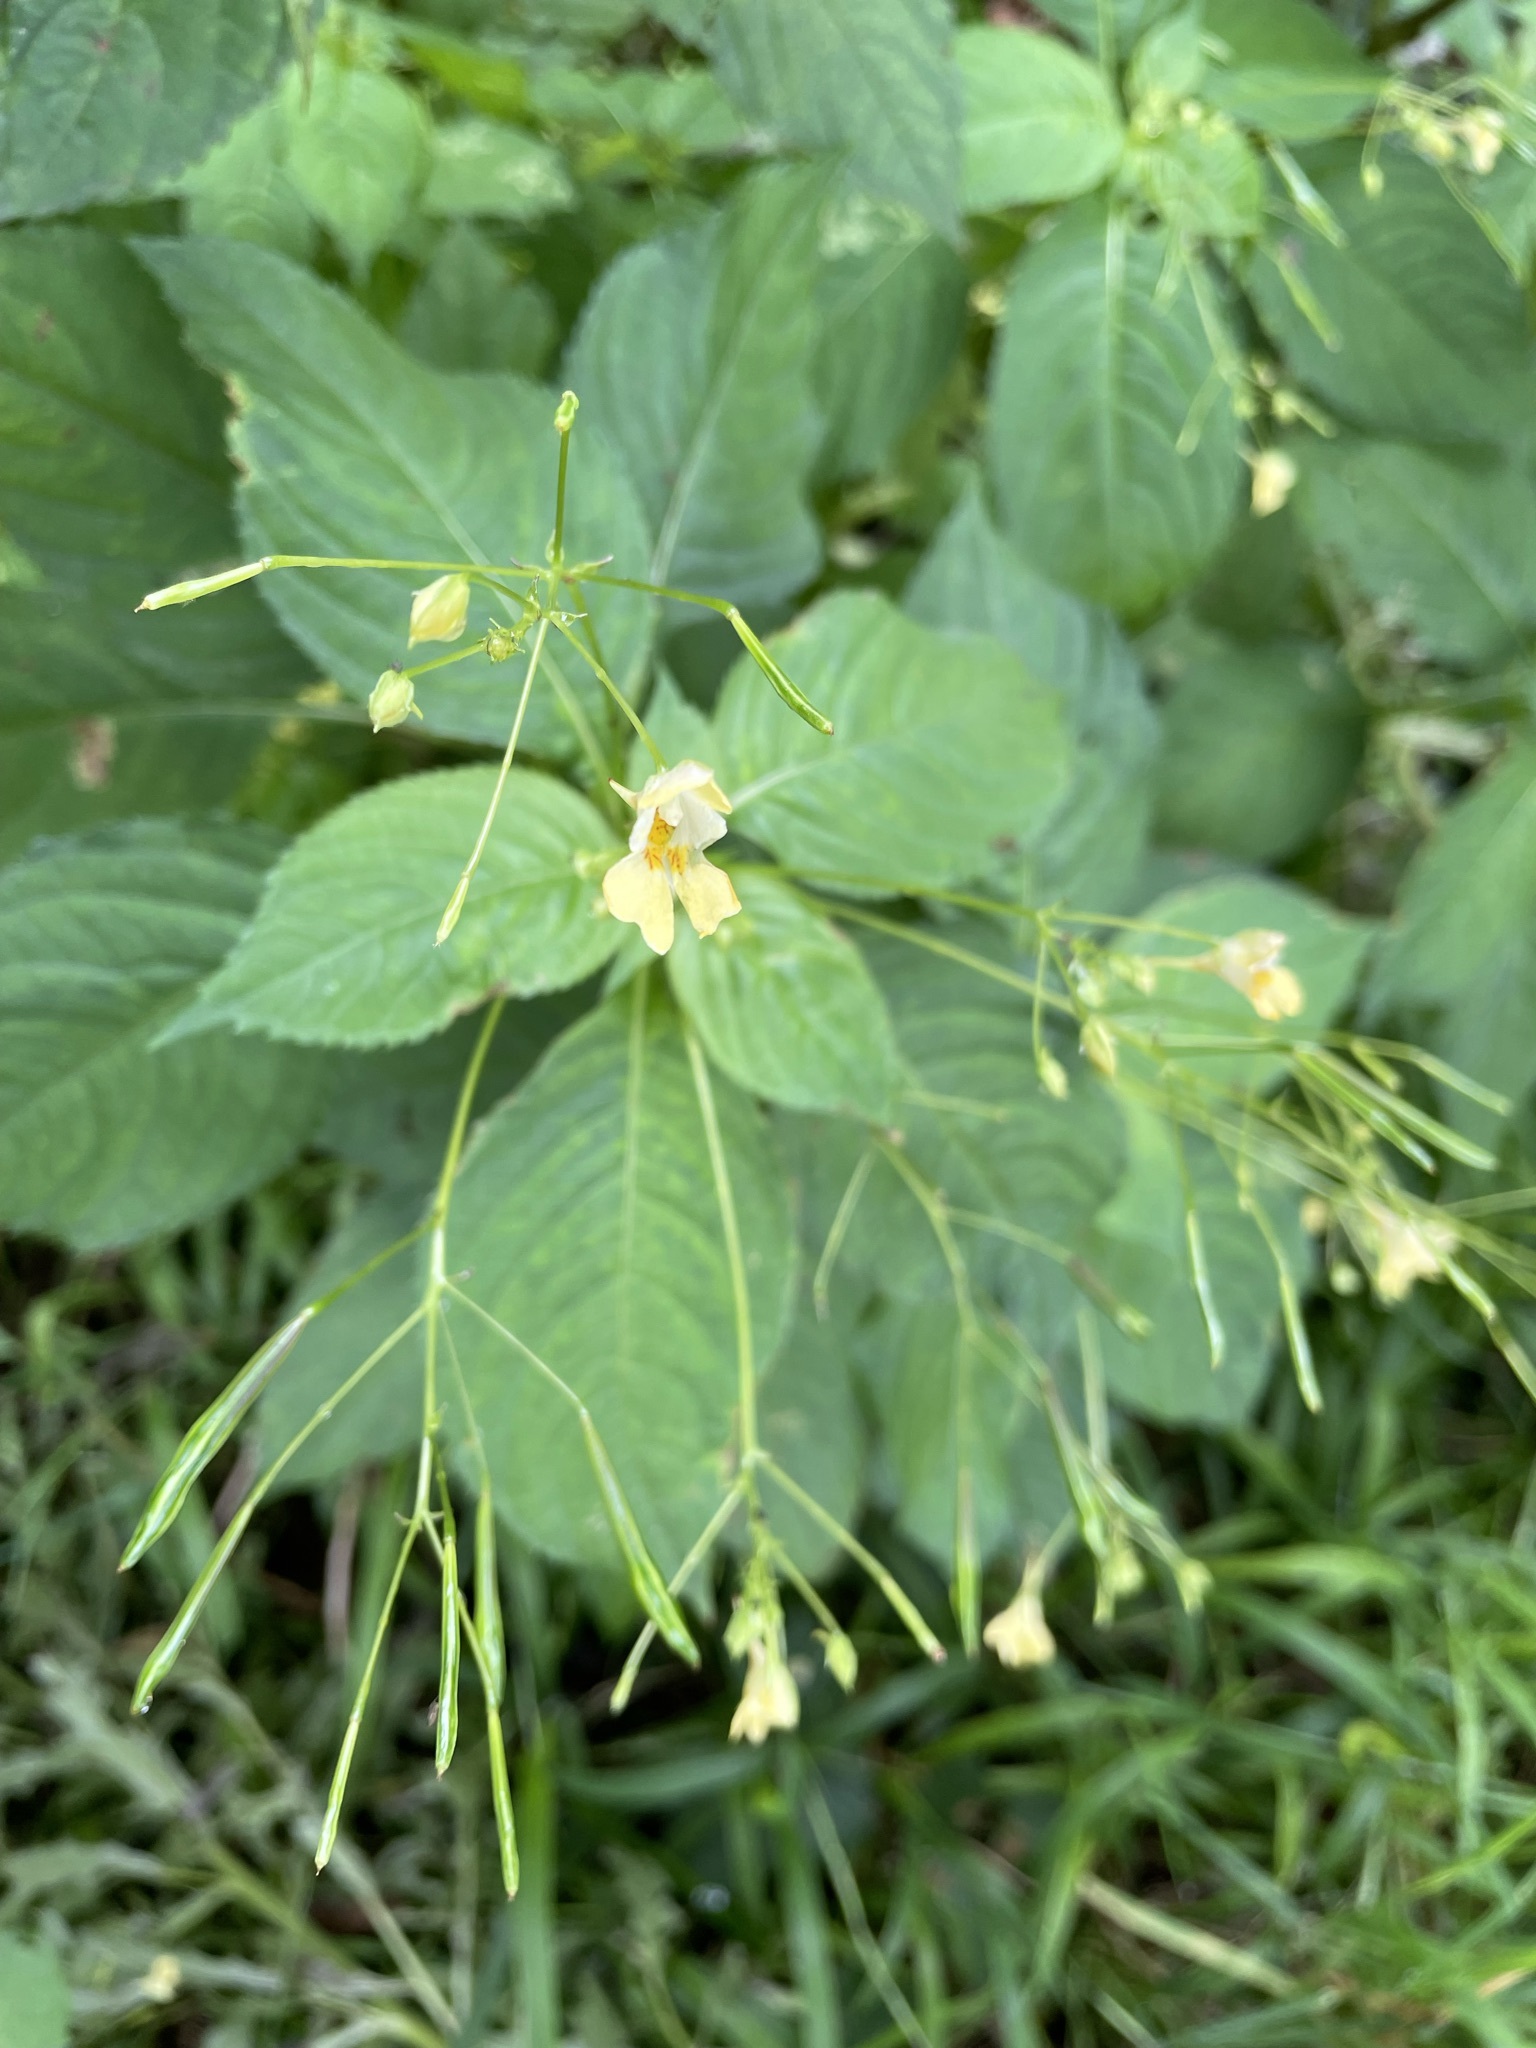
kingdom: Plantae
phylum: Tracheophyta
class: Magnoliopsida
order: Ericales
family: Balsaminaceae
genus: Impatiens
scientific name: Impatiens parviflora
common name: Small balsam
